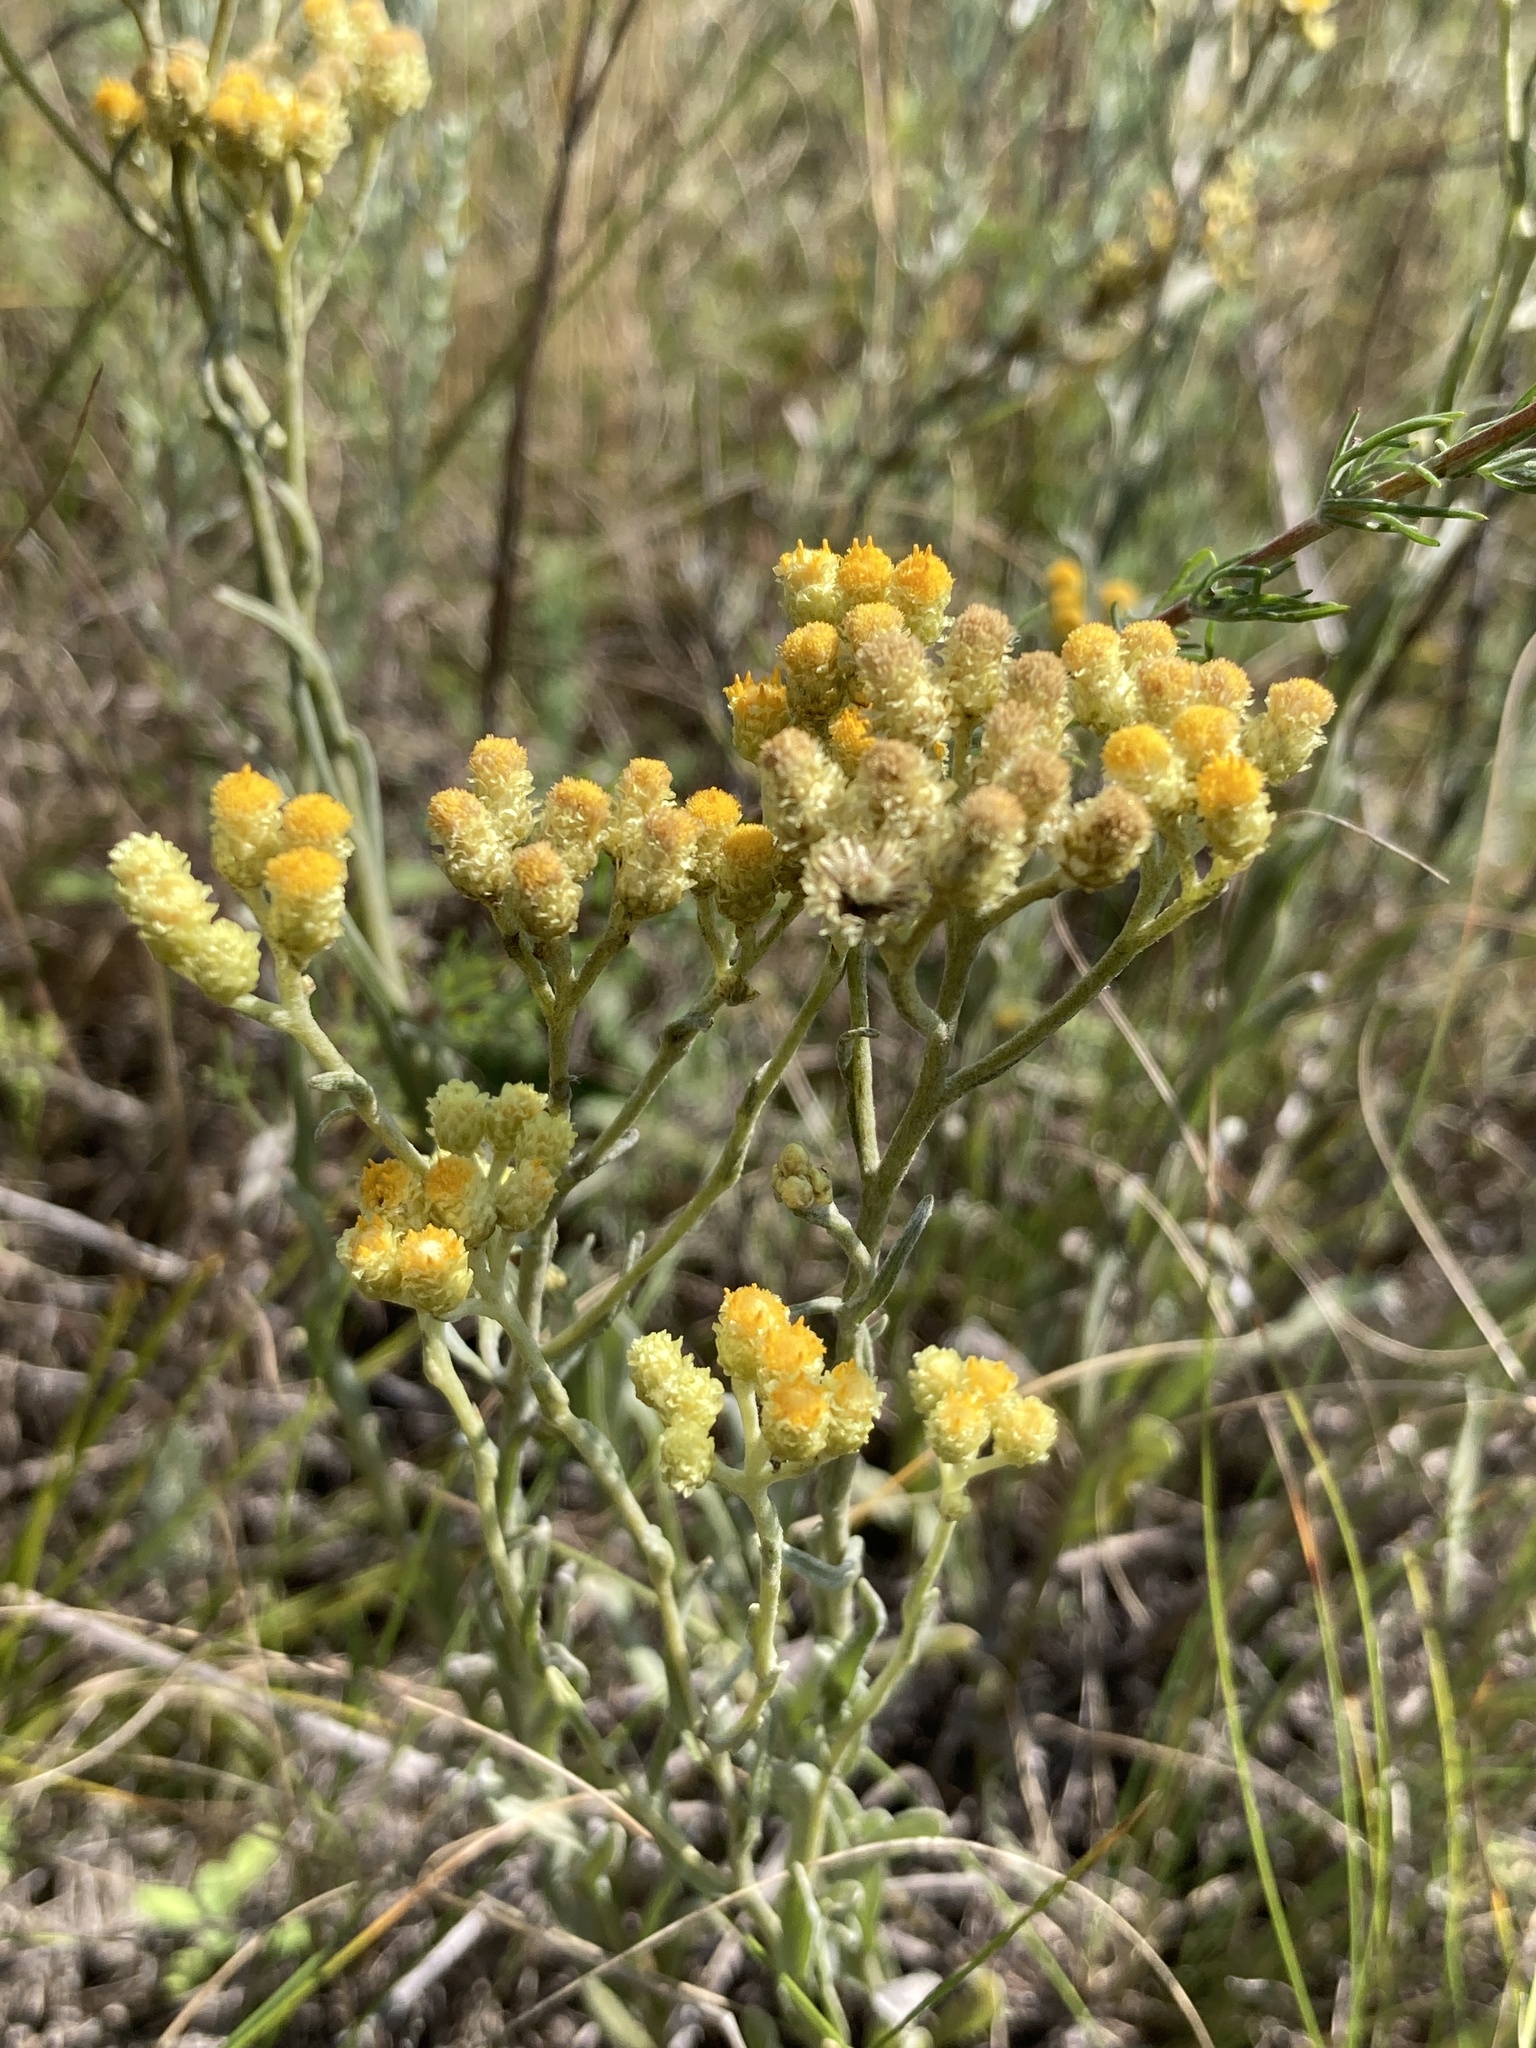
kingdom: Plantae
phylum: Tracheophyta
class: Magnoliopsida
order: Asterales
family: Asteraceae
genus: Helichrysum
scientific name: Helichrysum arenarium
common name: Strawflower
